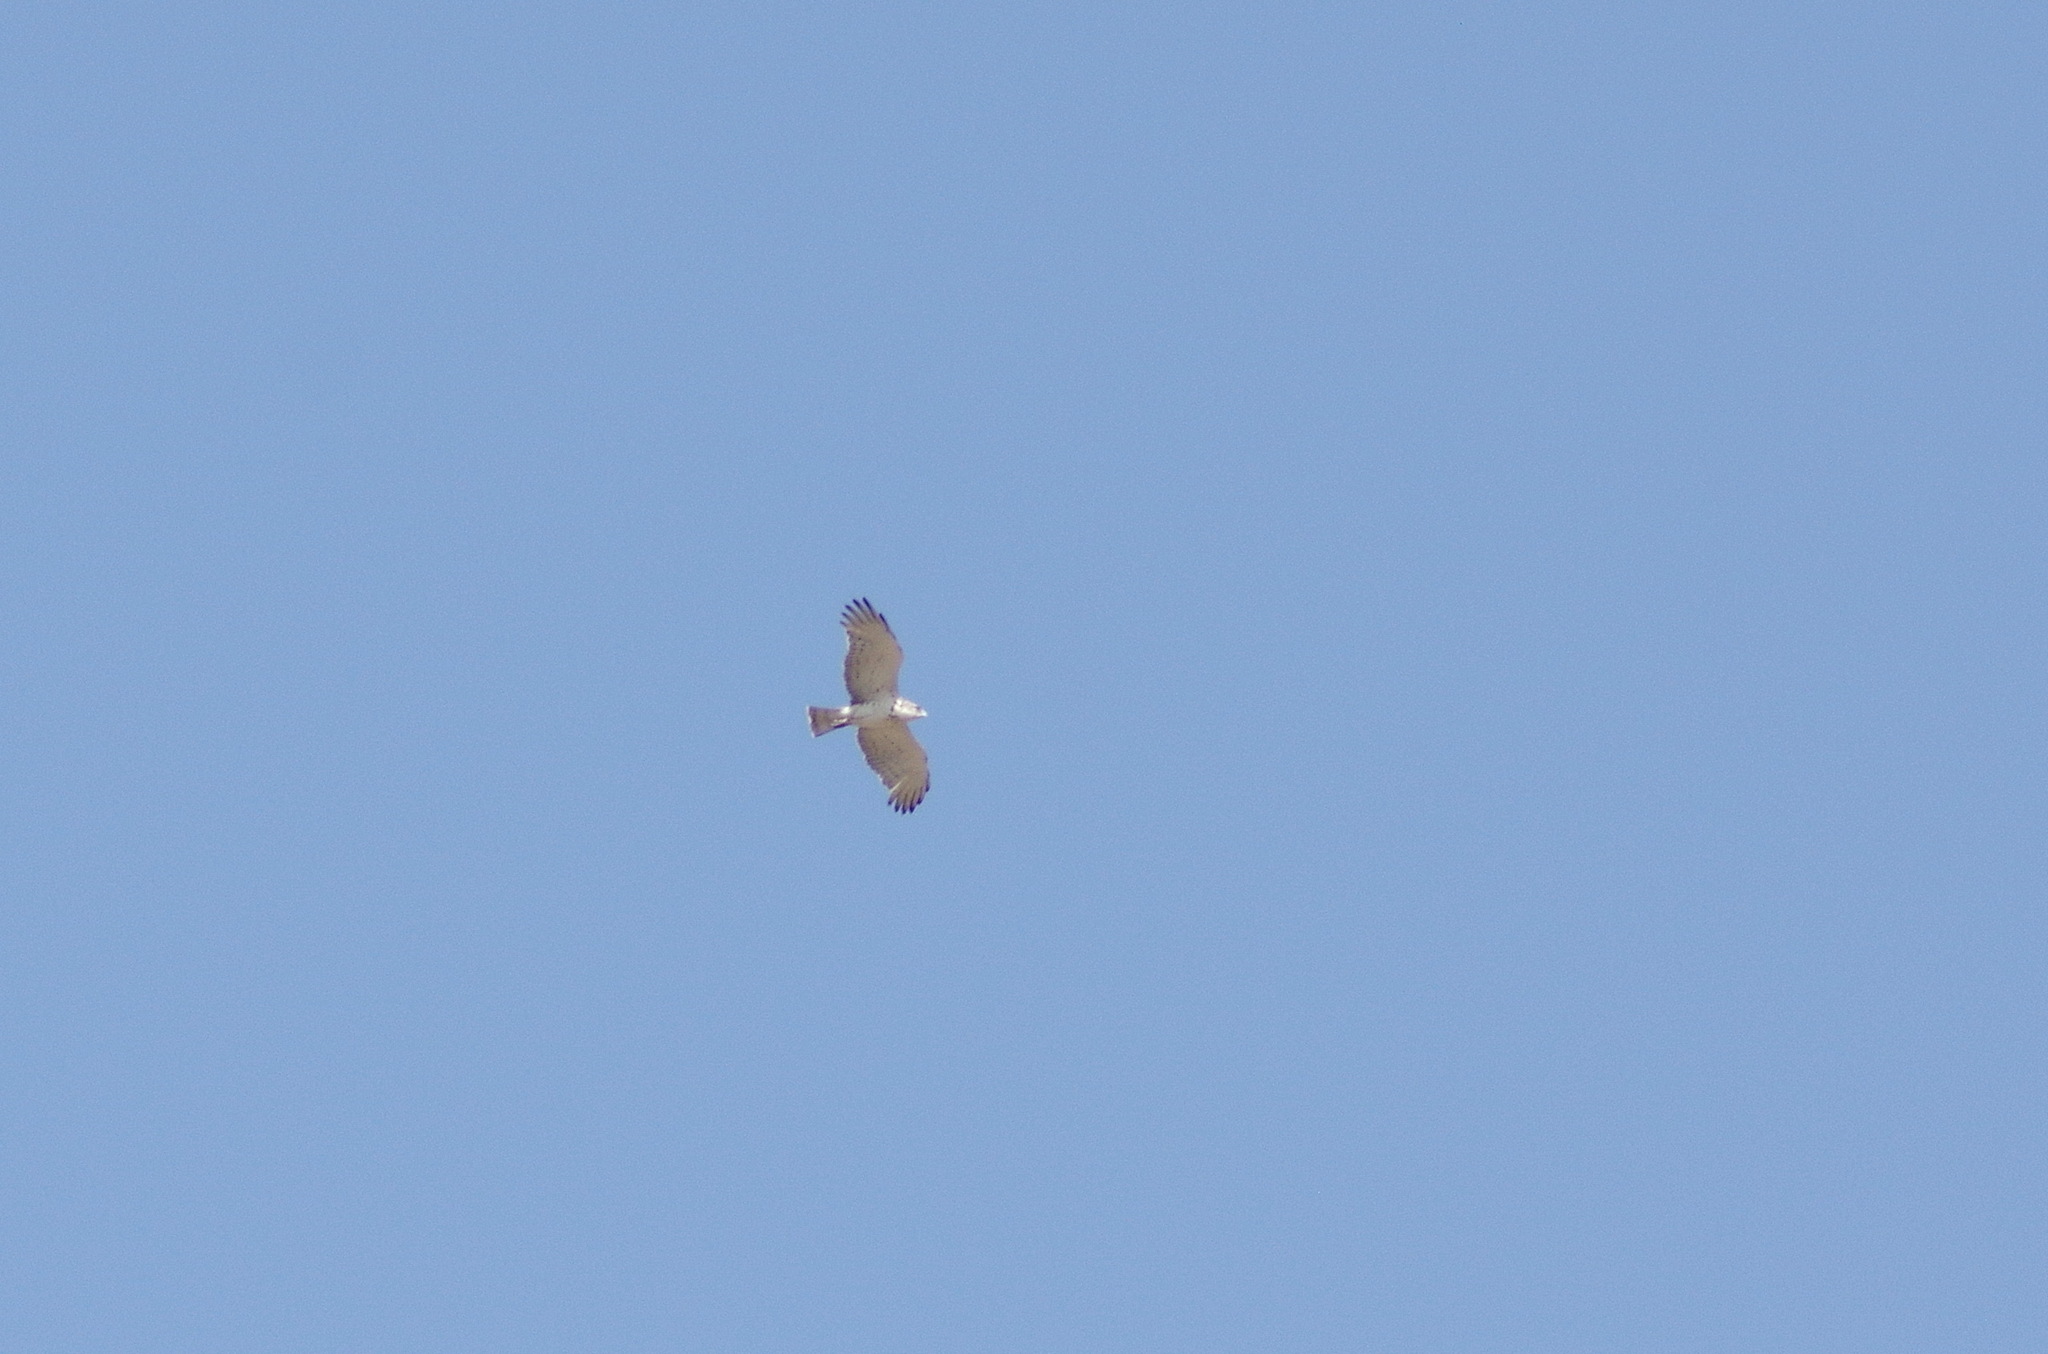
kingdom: Animalia
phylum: Chordata
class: Aves
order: Accipitriformes
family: Accipitridae
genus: Circaetus
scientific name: Circaetus gallicus
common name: Short-toed snake eagle
